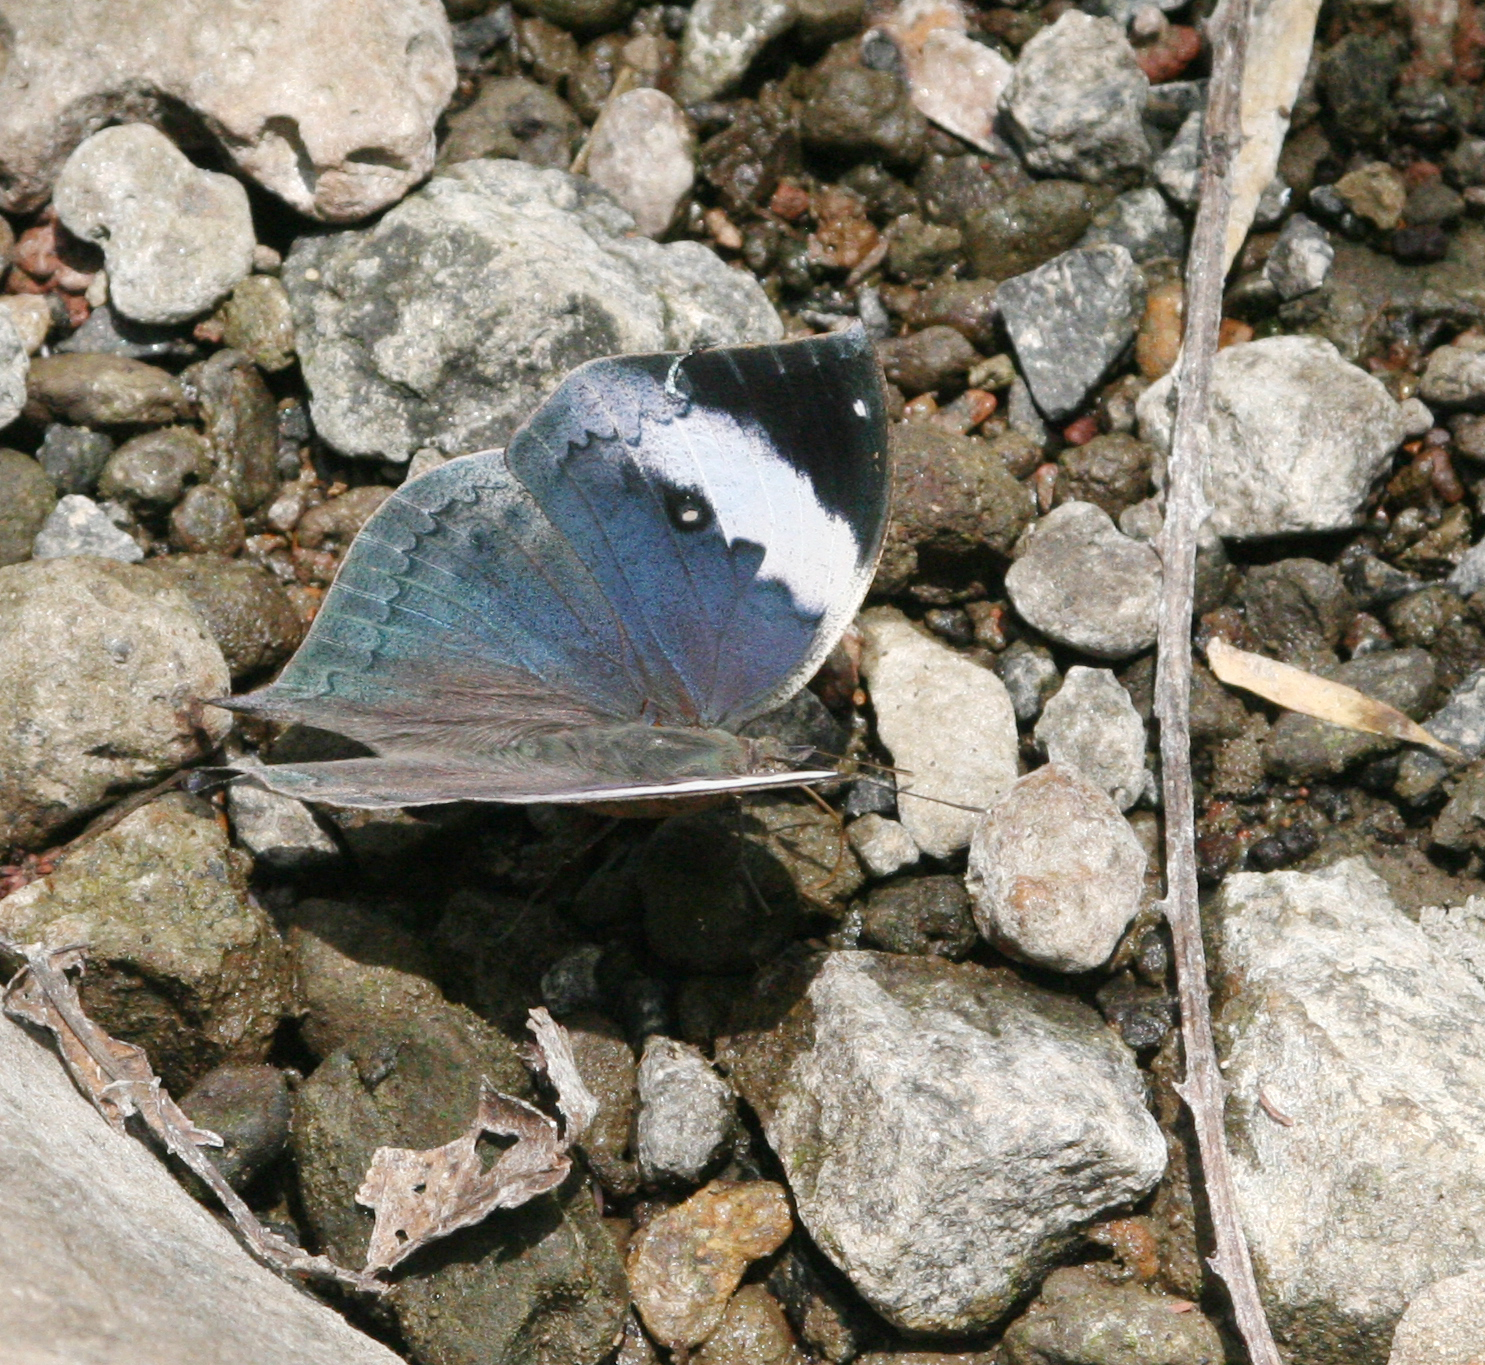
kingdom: Animalia
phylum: Arthropoda
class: Insecta
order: Lepidoptera
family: Nymphalidae
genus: Kallima
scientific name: Kallima inachus
